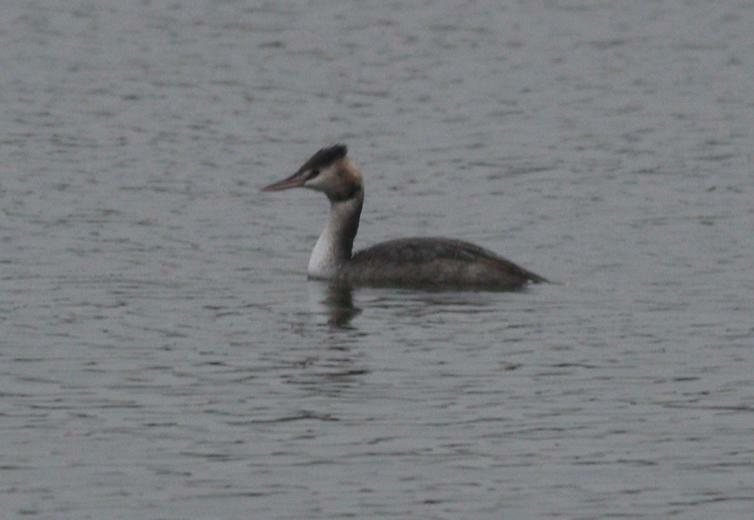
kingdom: Animalia
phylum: Chordata
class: Aves
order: Podicipediformes
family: Podicipedidae
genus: Podiceps
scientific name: Podiceps cristatus
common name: Great crested grebe
